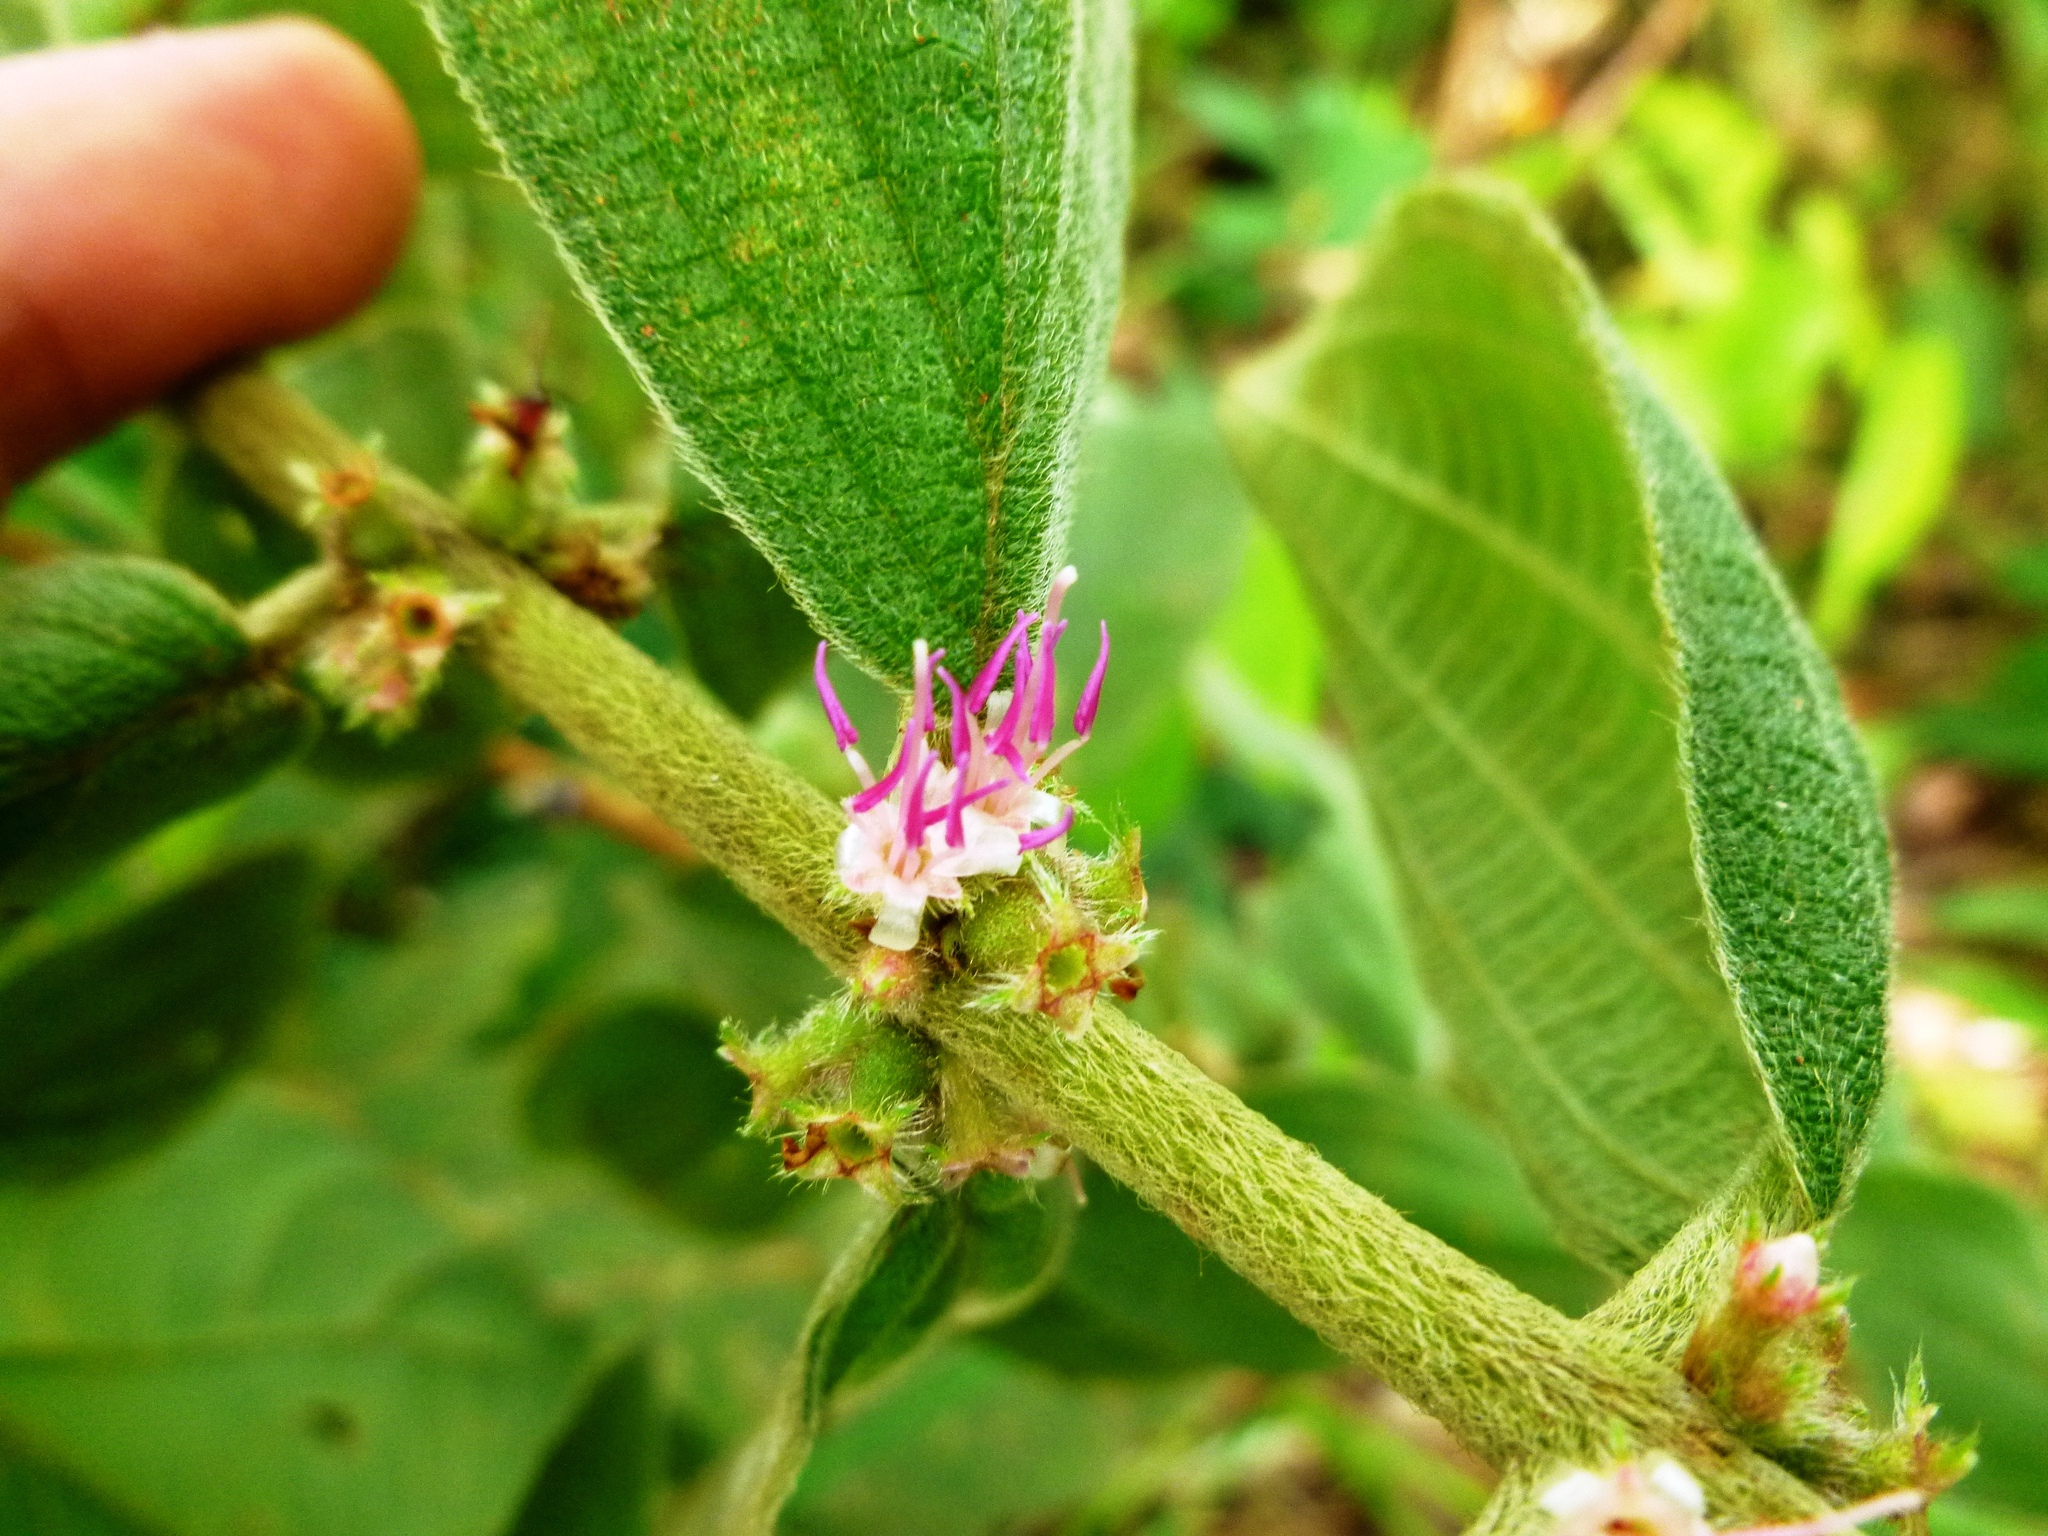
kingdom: Plantae
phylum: Tracheophyta
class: Magnoliopsida
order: Myrtales
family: Melastomataceae
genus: Miconia
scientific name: Miconia sericea
